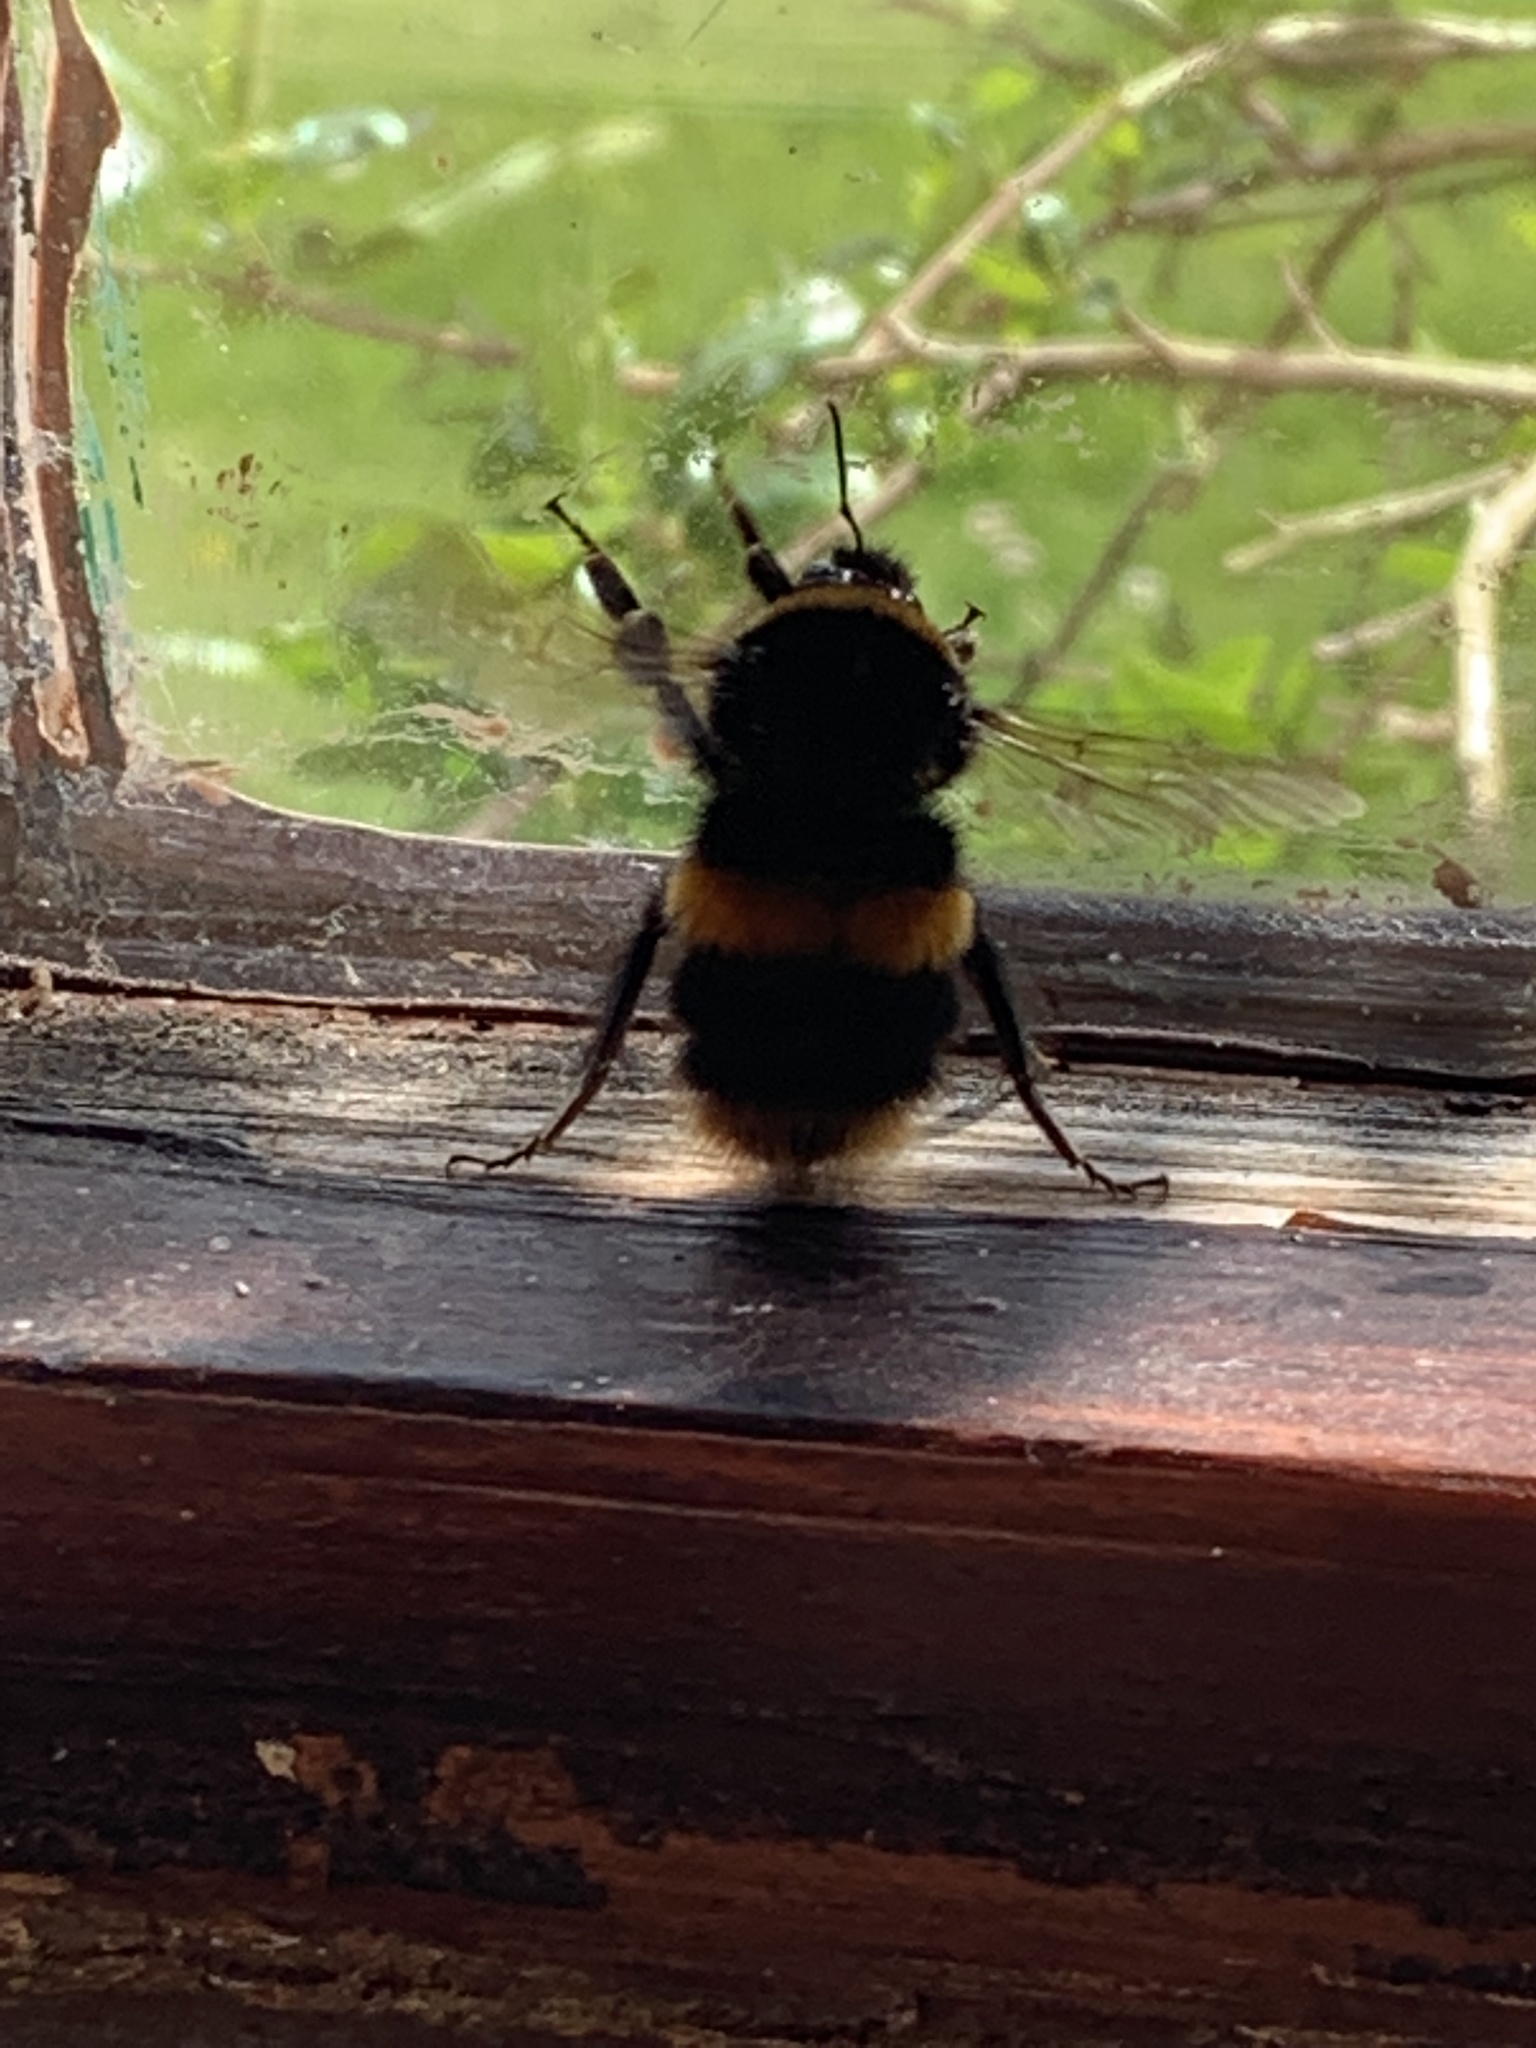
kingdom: Animalia
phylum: Arthropoda
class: Insecta
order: Hymenoptera
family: Apidae
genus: Bombus
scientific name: Bombus terrestris
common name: Buff-tailed bumblebee
